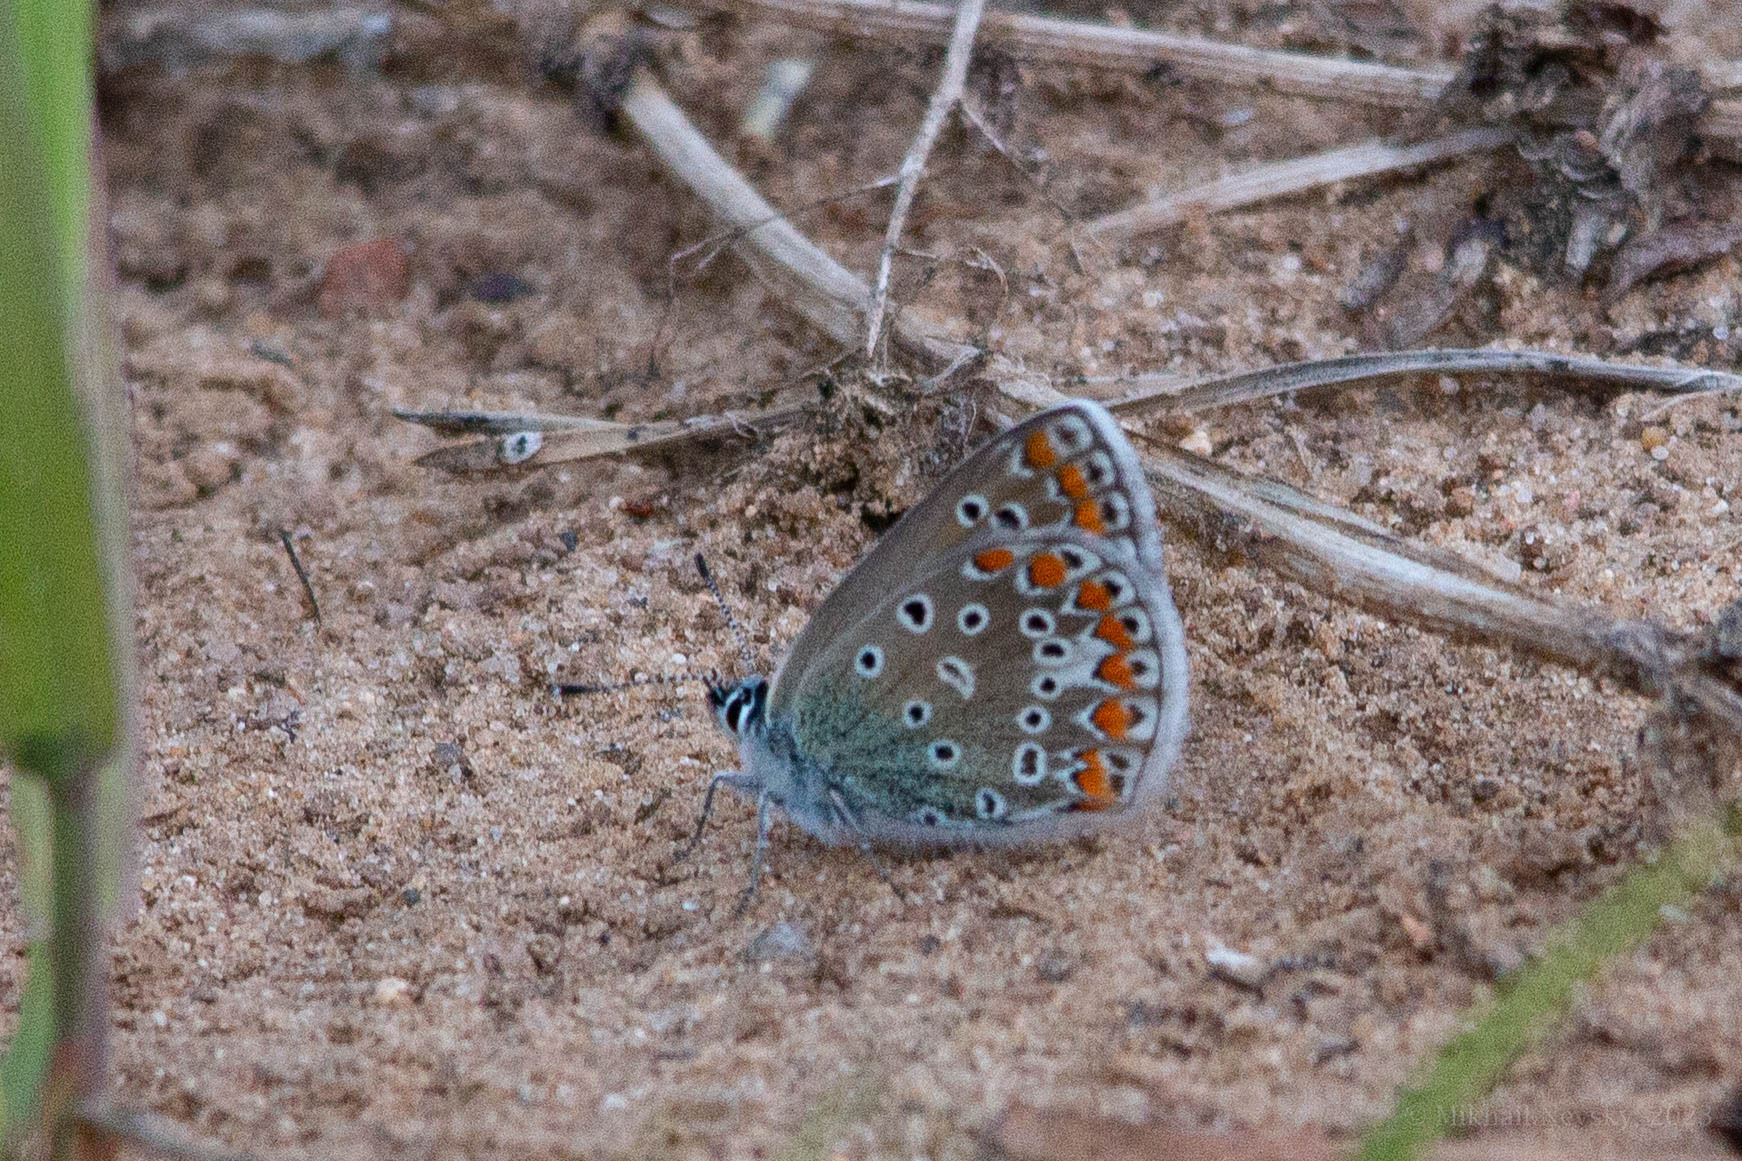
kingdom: Animalia
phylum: Arthropoda
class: Insecta
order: Lepidoptera
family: Lycaenidae
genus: Polyommatus
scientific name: Polyommatus icarus
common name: Common blue
